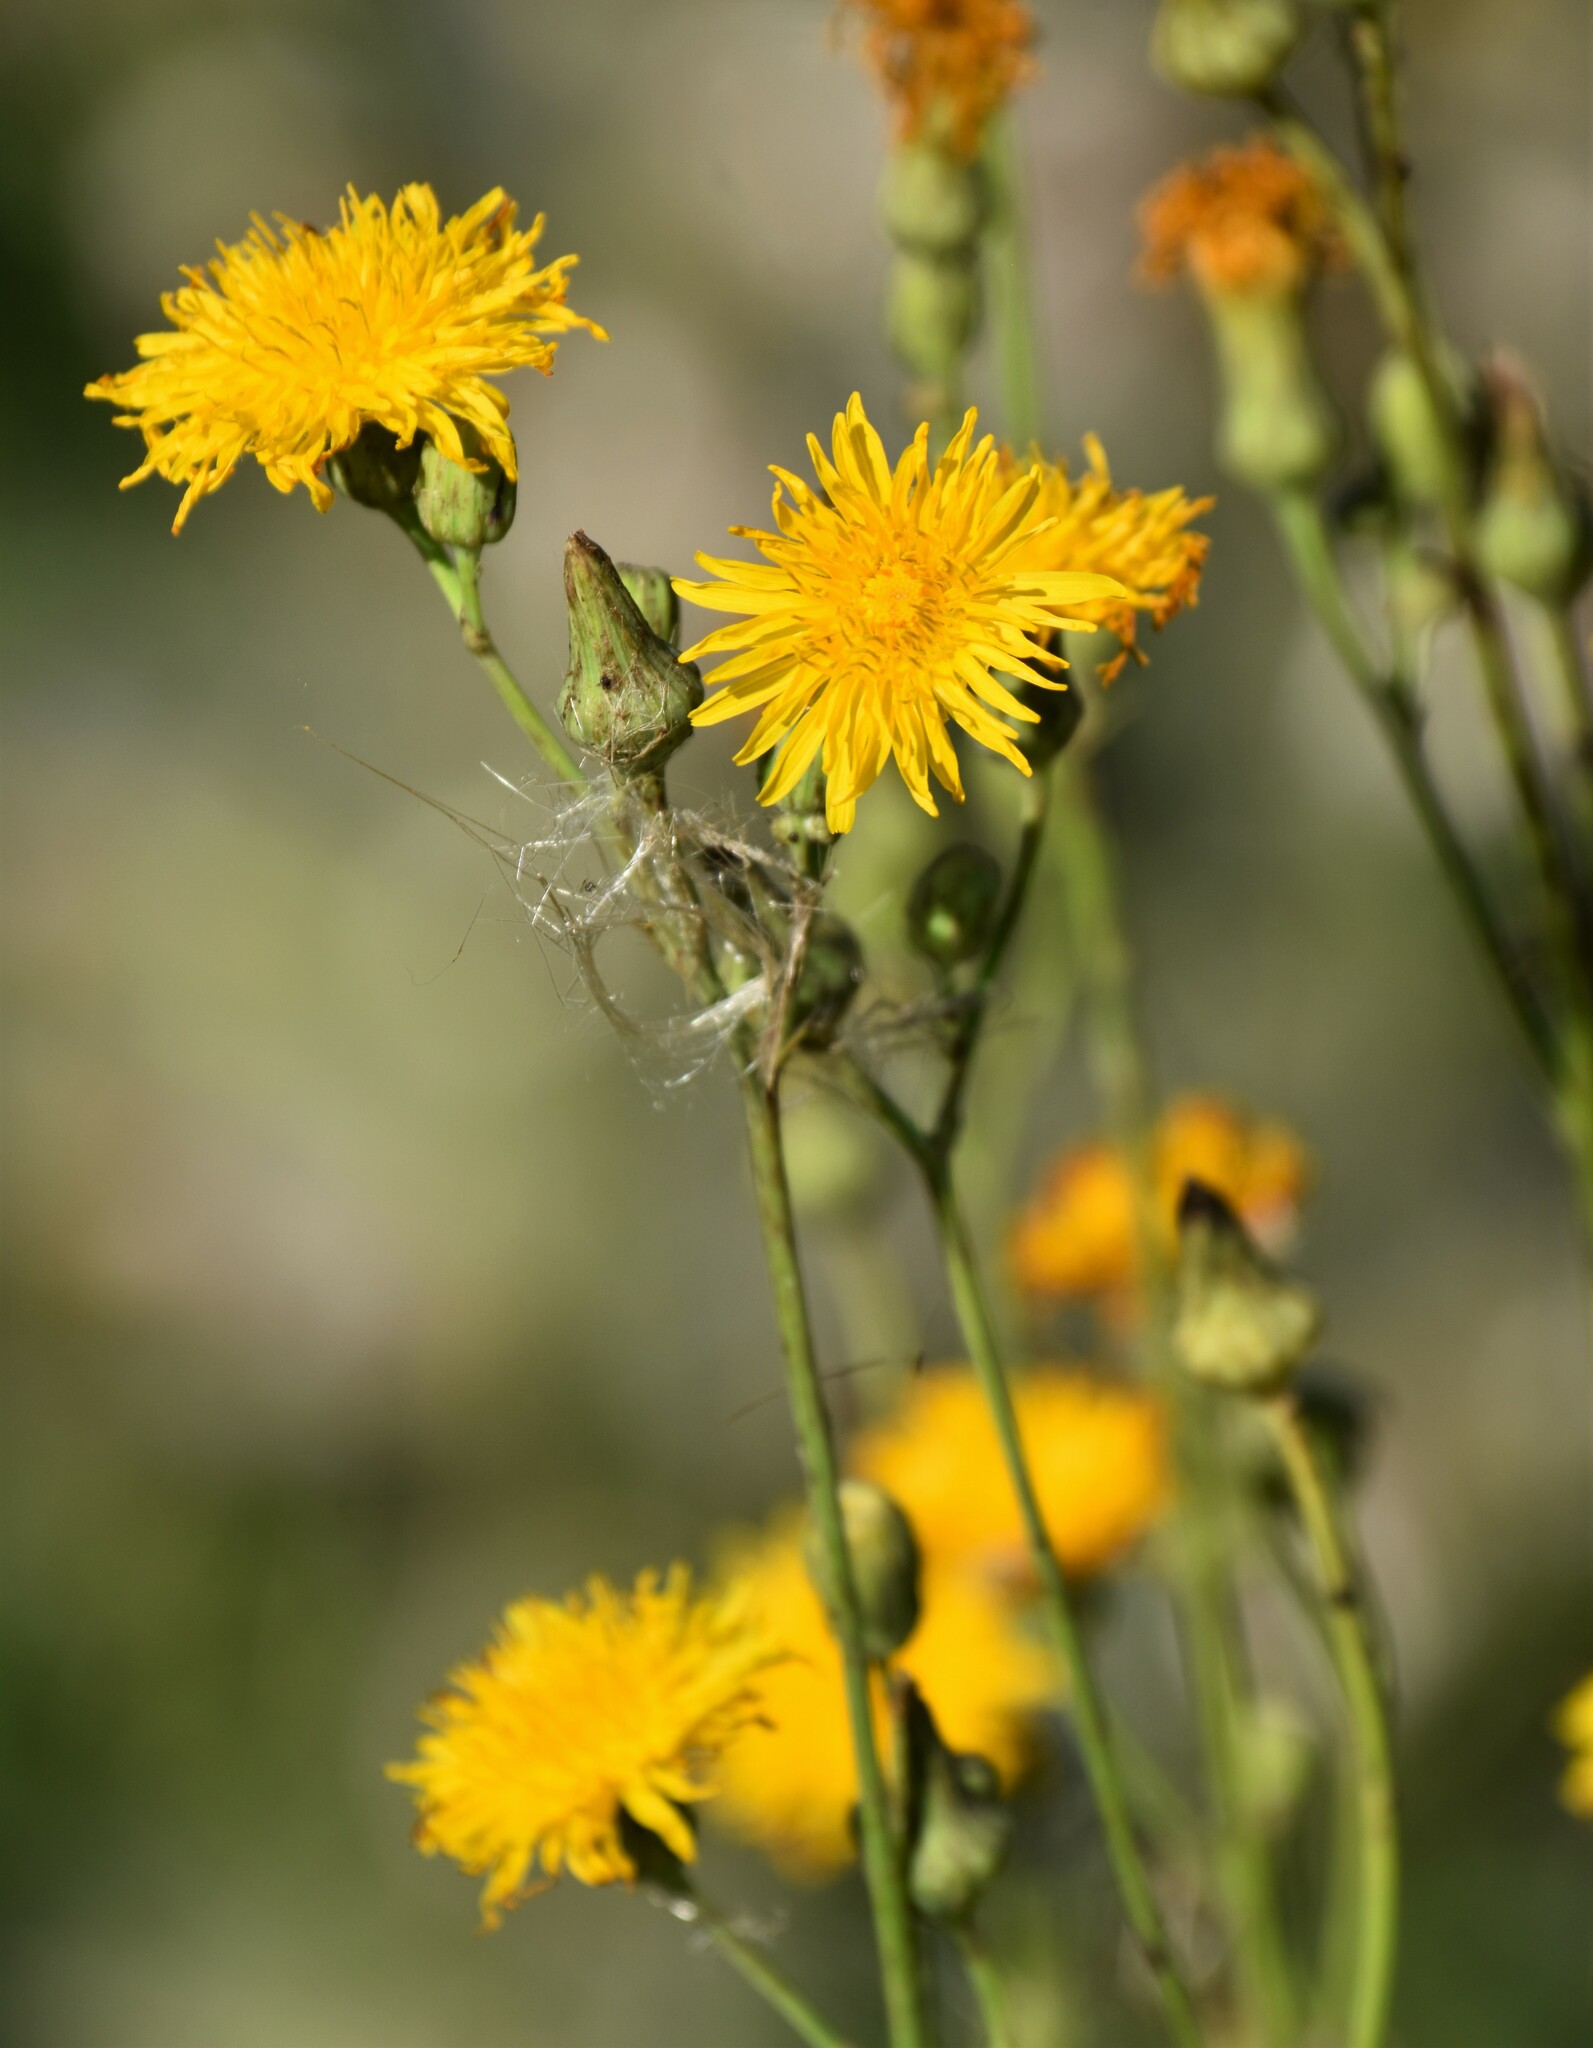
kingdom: Plantae
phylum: Tracheophyta
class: Magnoliopsida
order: Asterales
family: Asteraceae
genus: Sonchus
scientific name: Sonchus arvensis
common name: Perennial sow-thistle
